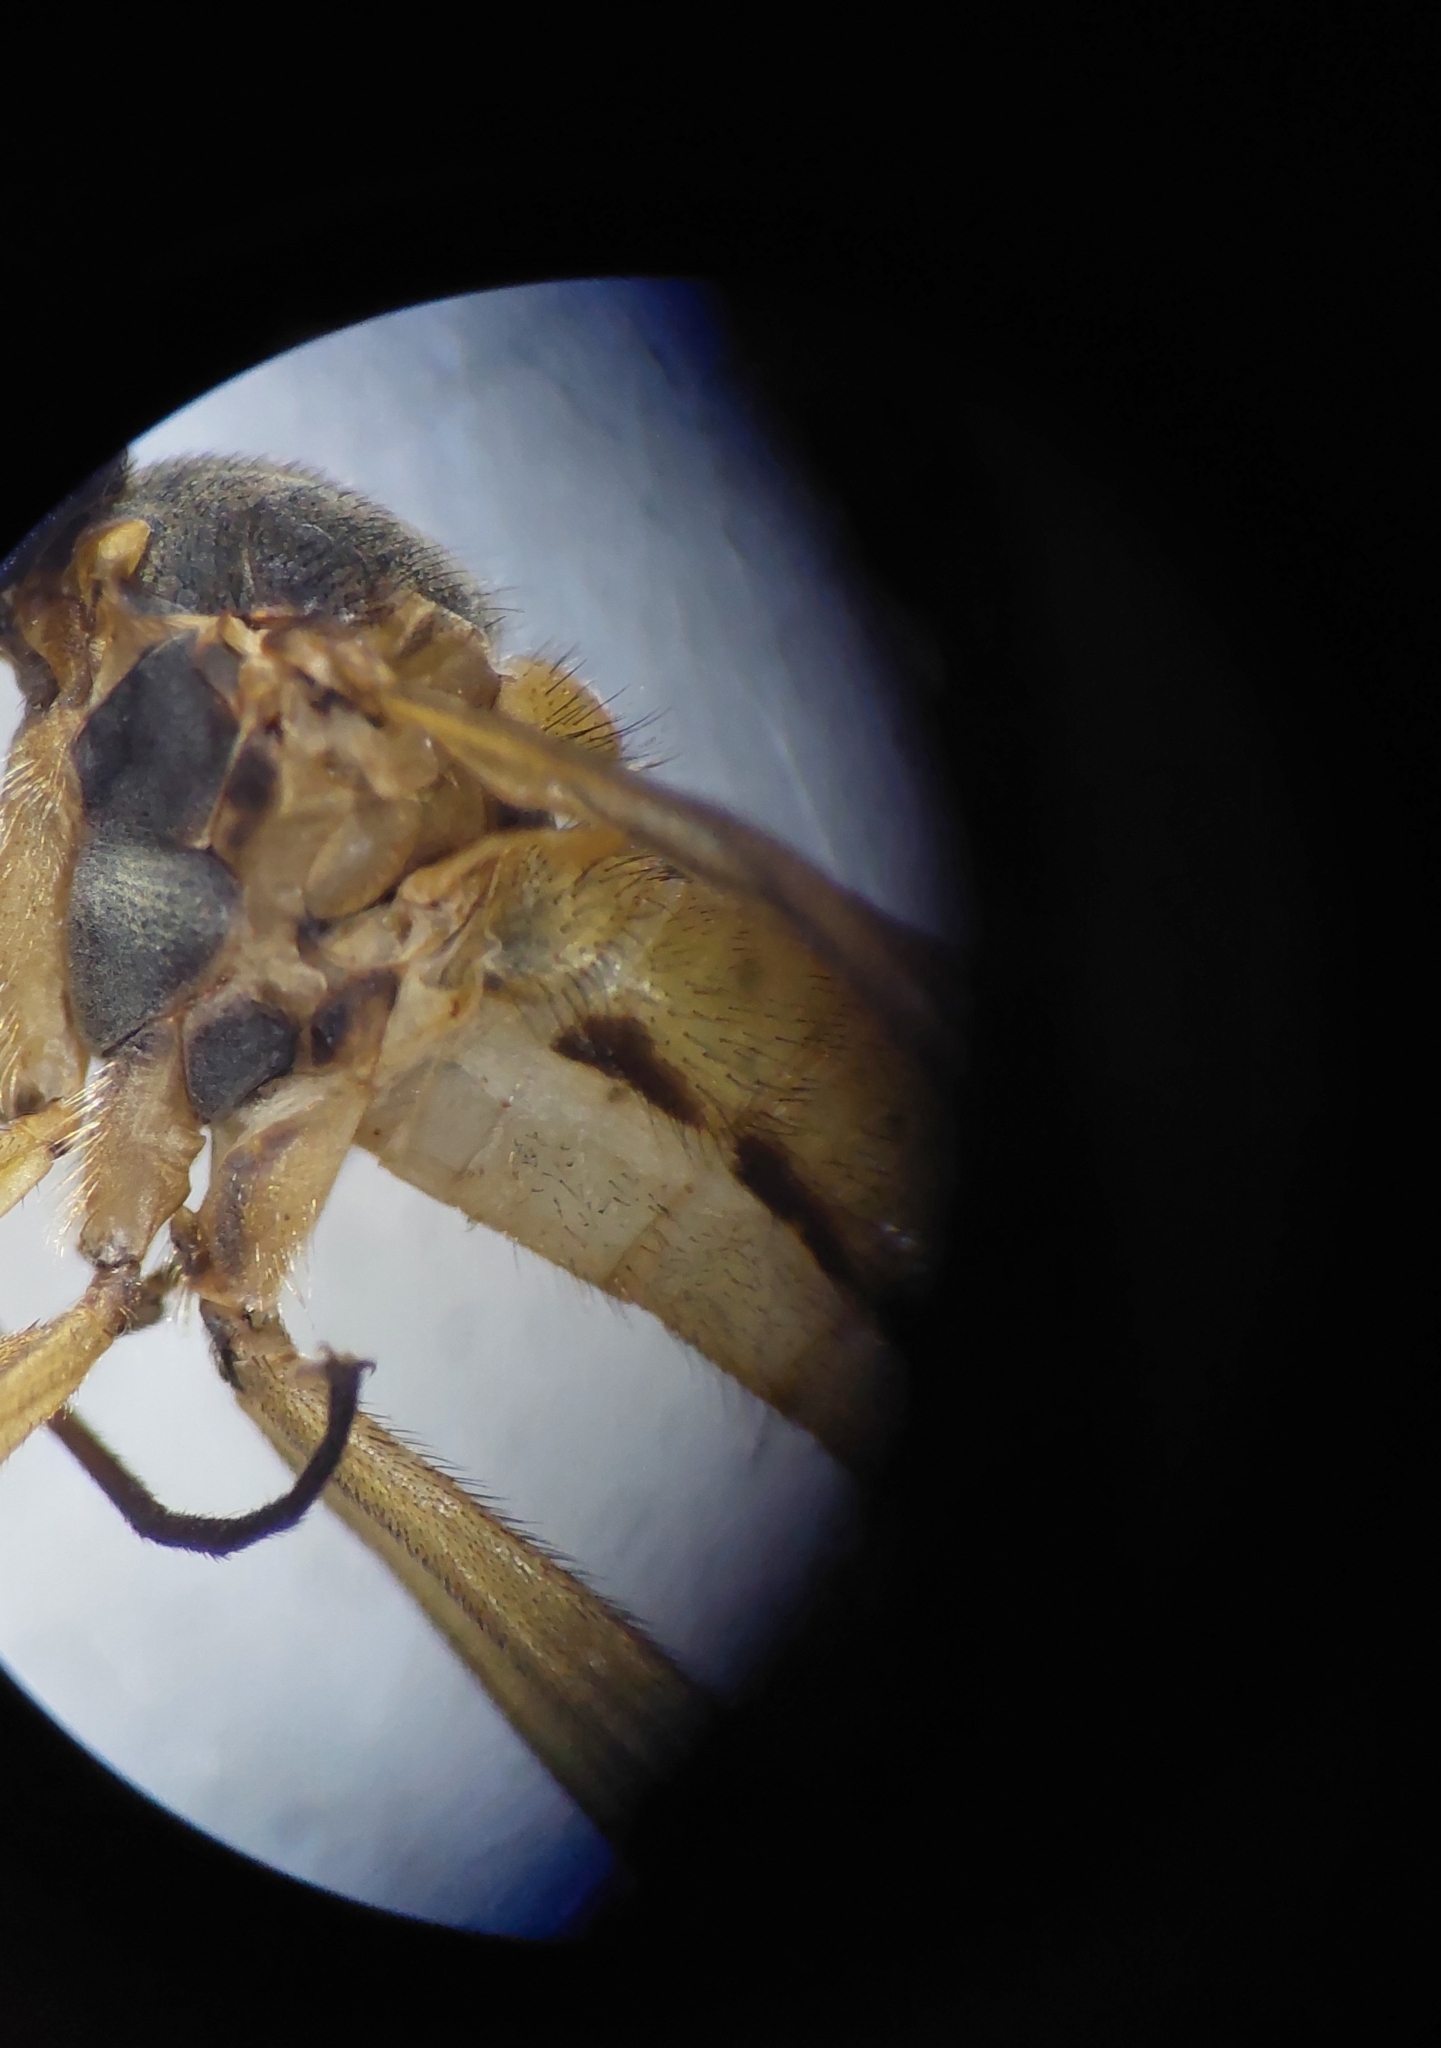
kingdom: Animalia
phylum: Arthropoda
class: Insecta
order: Diptera
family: Rhagionidae
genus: Rhagio
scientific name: Rhagio tringaria
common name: Marsh snipefly
